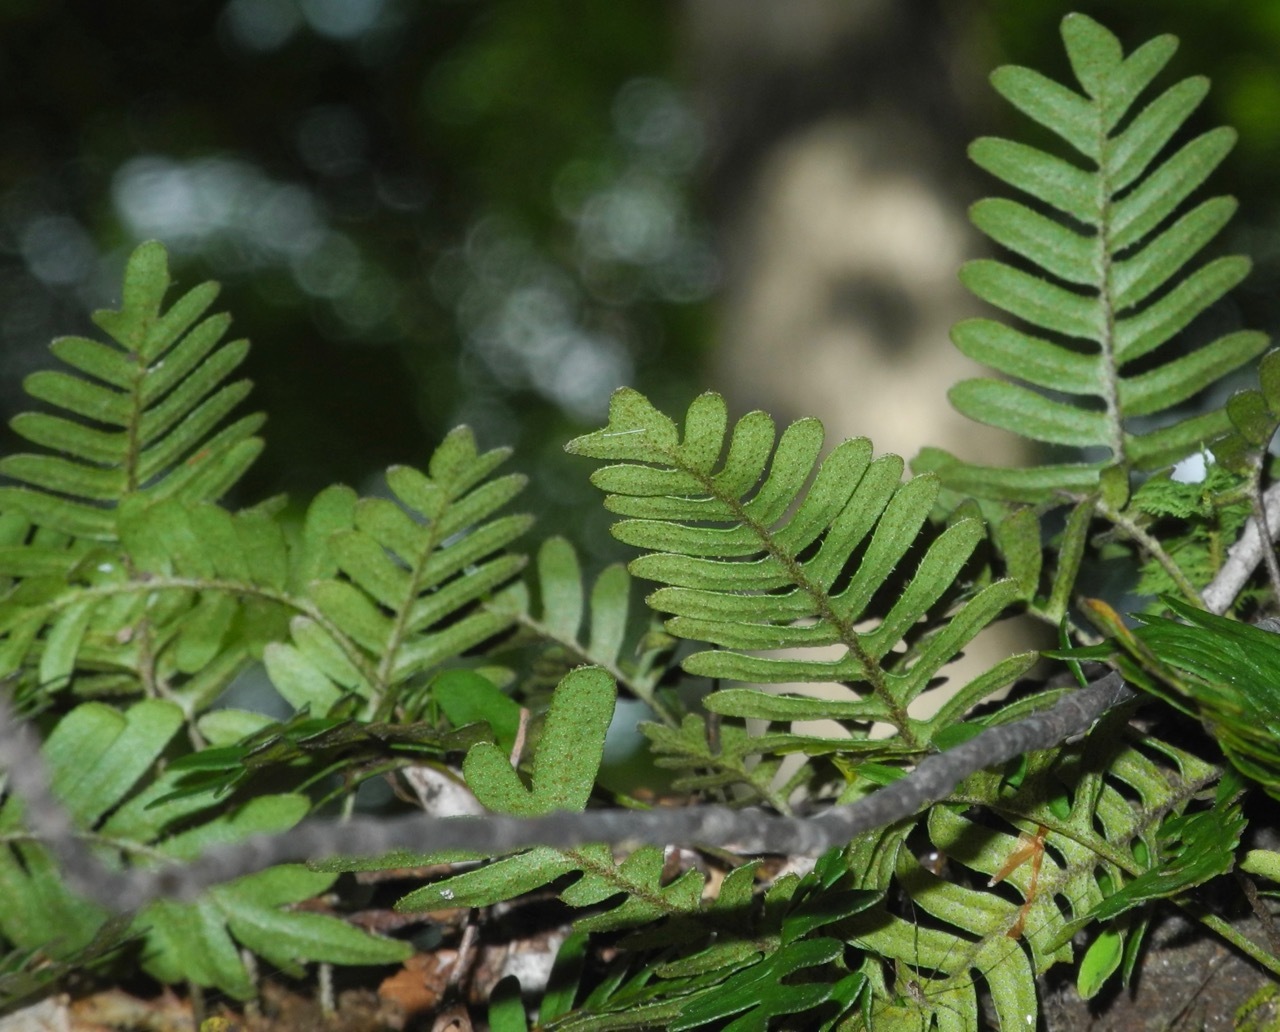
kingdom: Plantae
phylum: Tracheophyta
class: Polypodiopsida
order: Polypodiales
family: Polypodiaceae
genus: Pleopeltis
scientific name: Pleopeltis michauxiana
